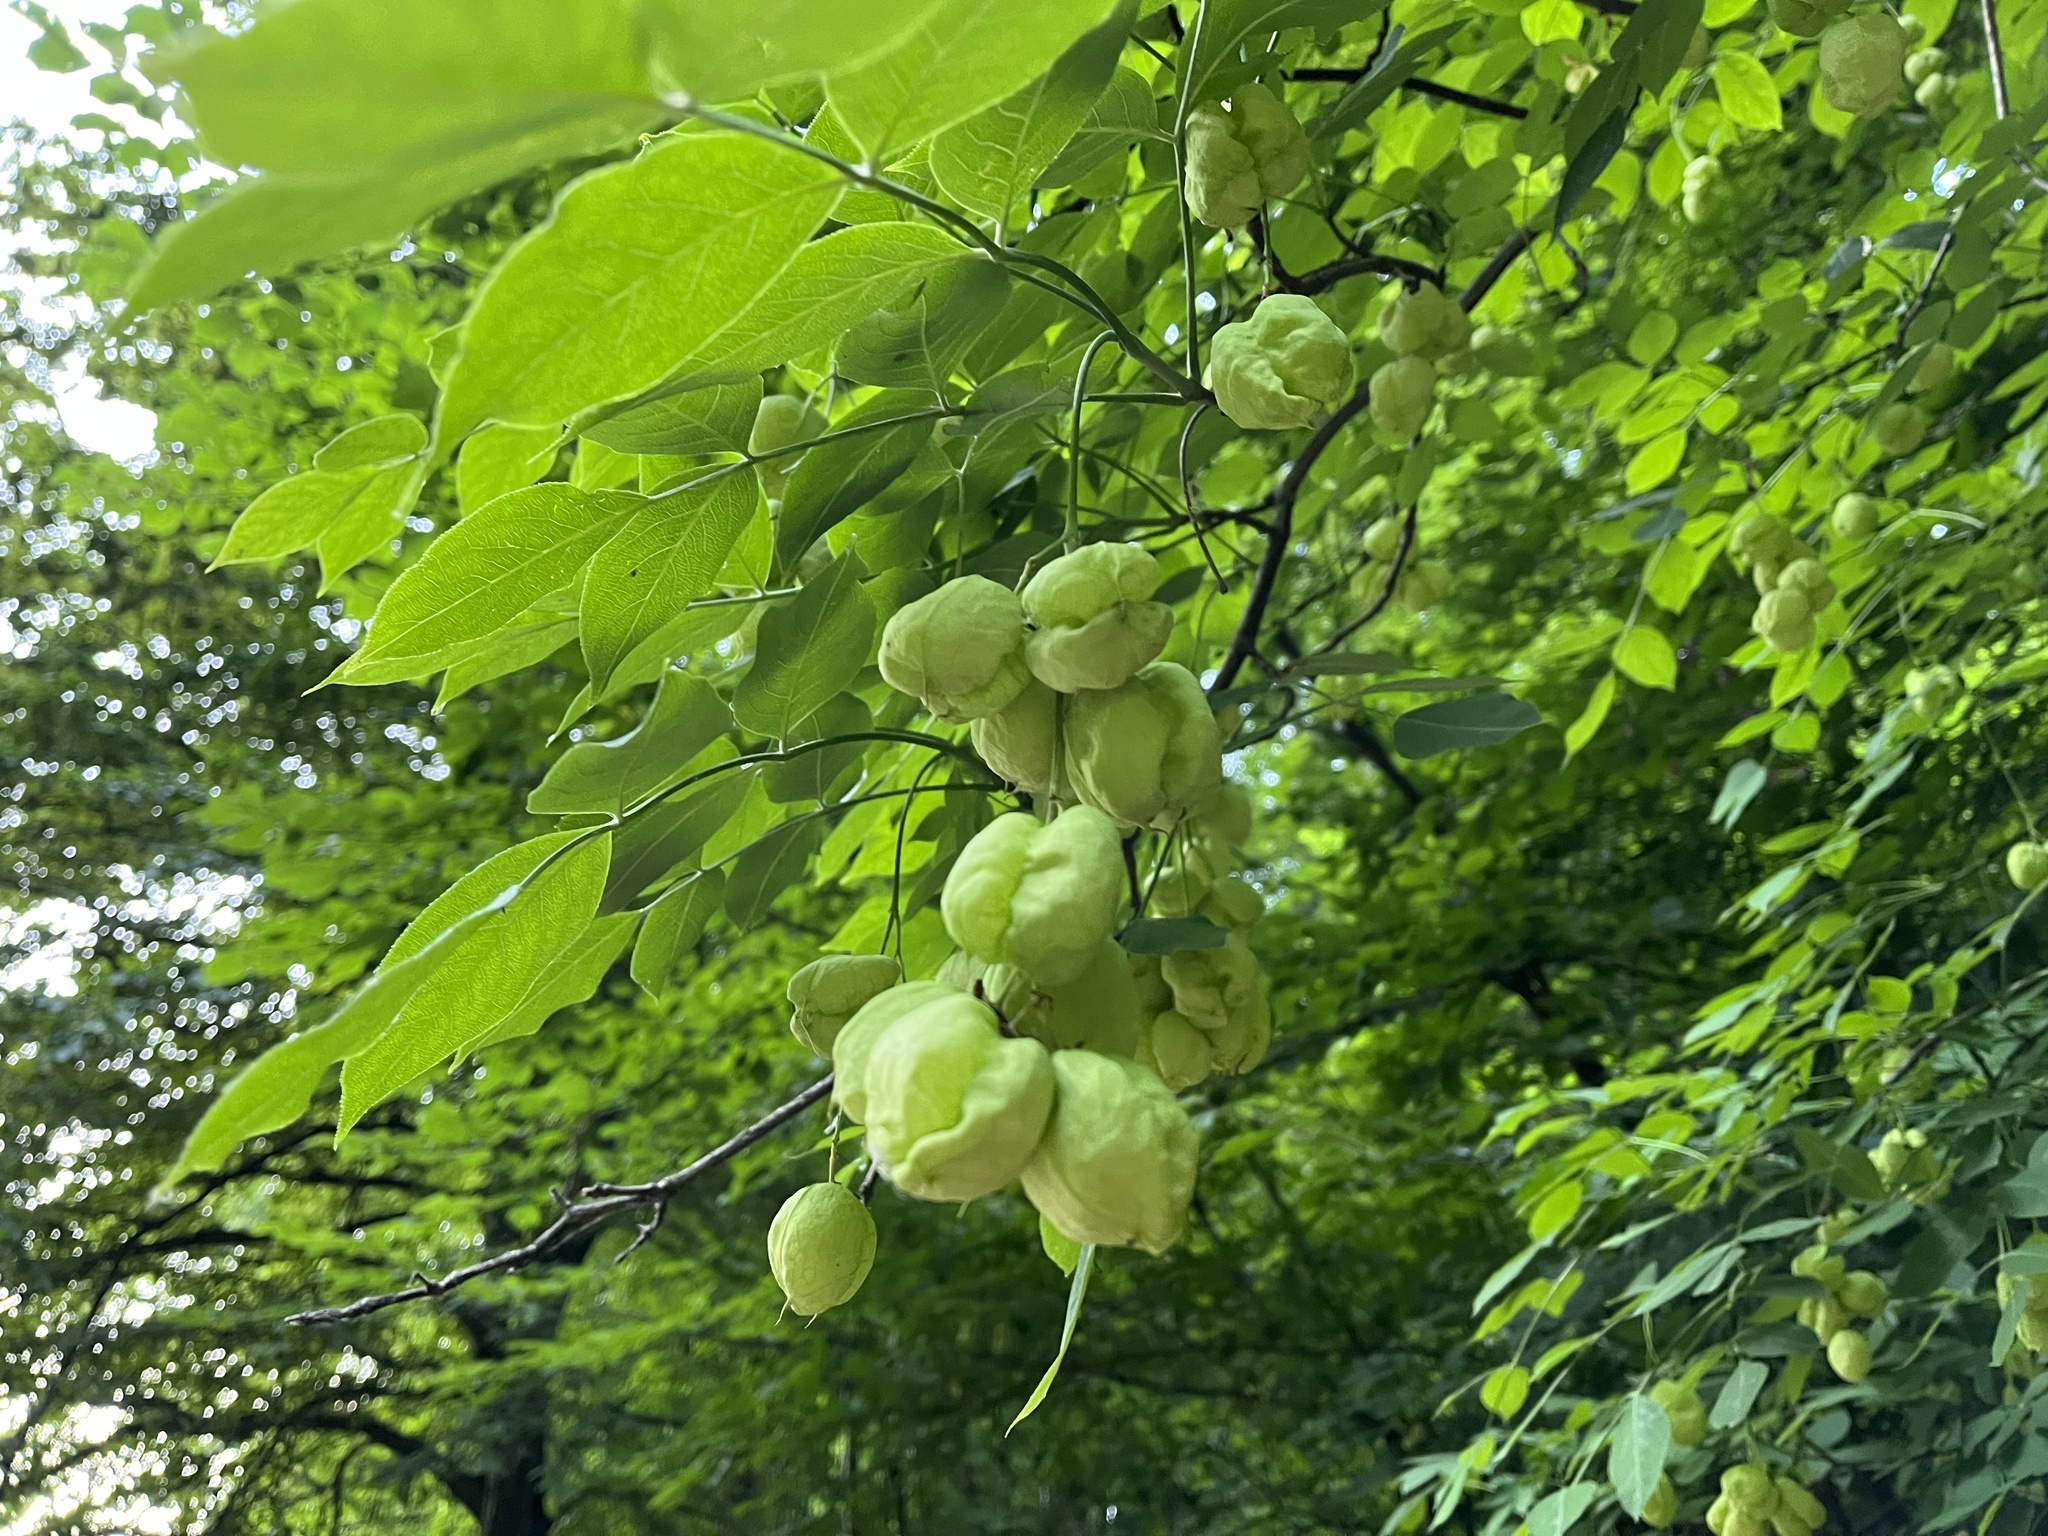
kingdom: Plantae
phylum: Tracheophyta
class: Magnoliopsida
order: Crossosomatales
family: Staphyleaceae
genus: Staphylea
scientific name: Staphylea pinnata
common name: Bladdernut
